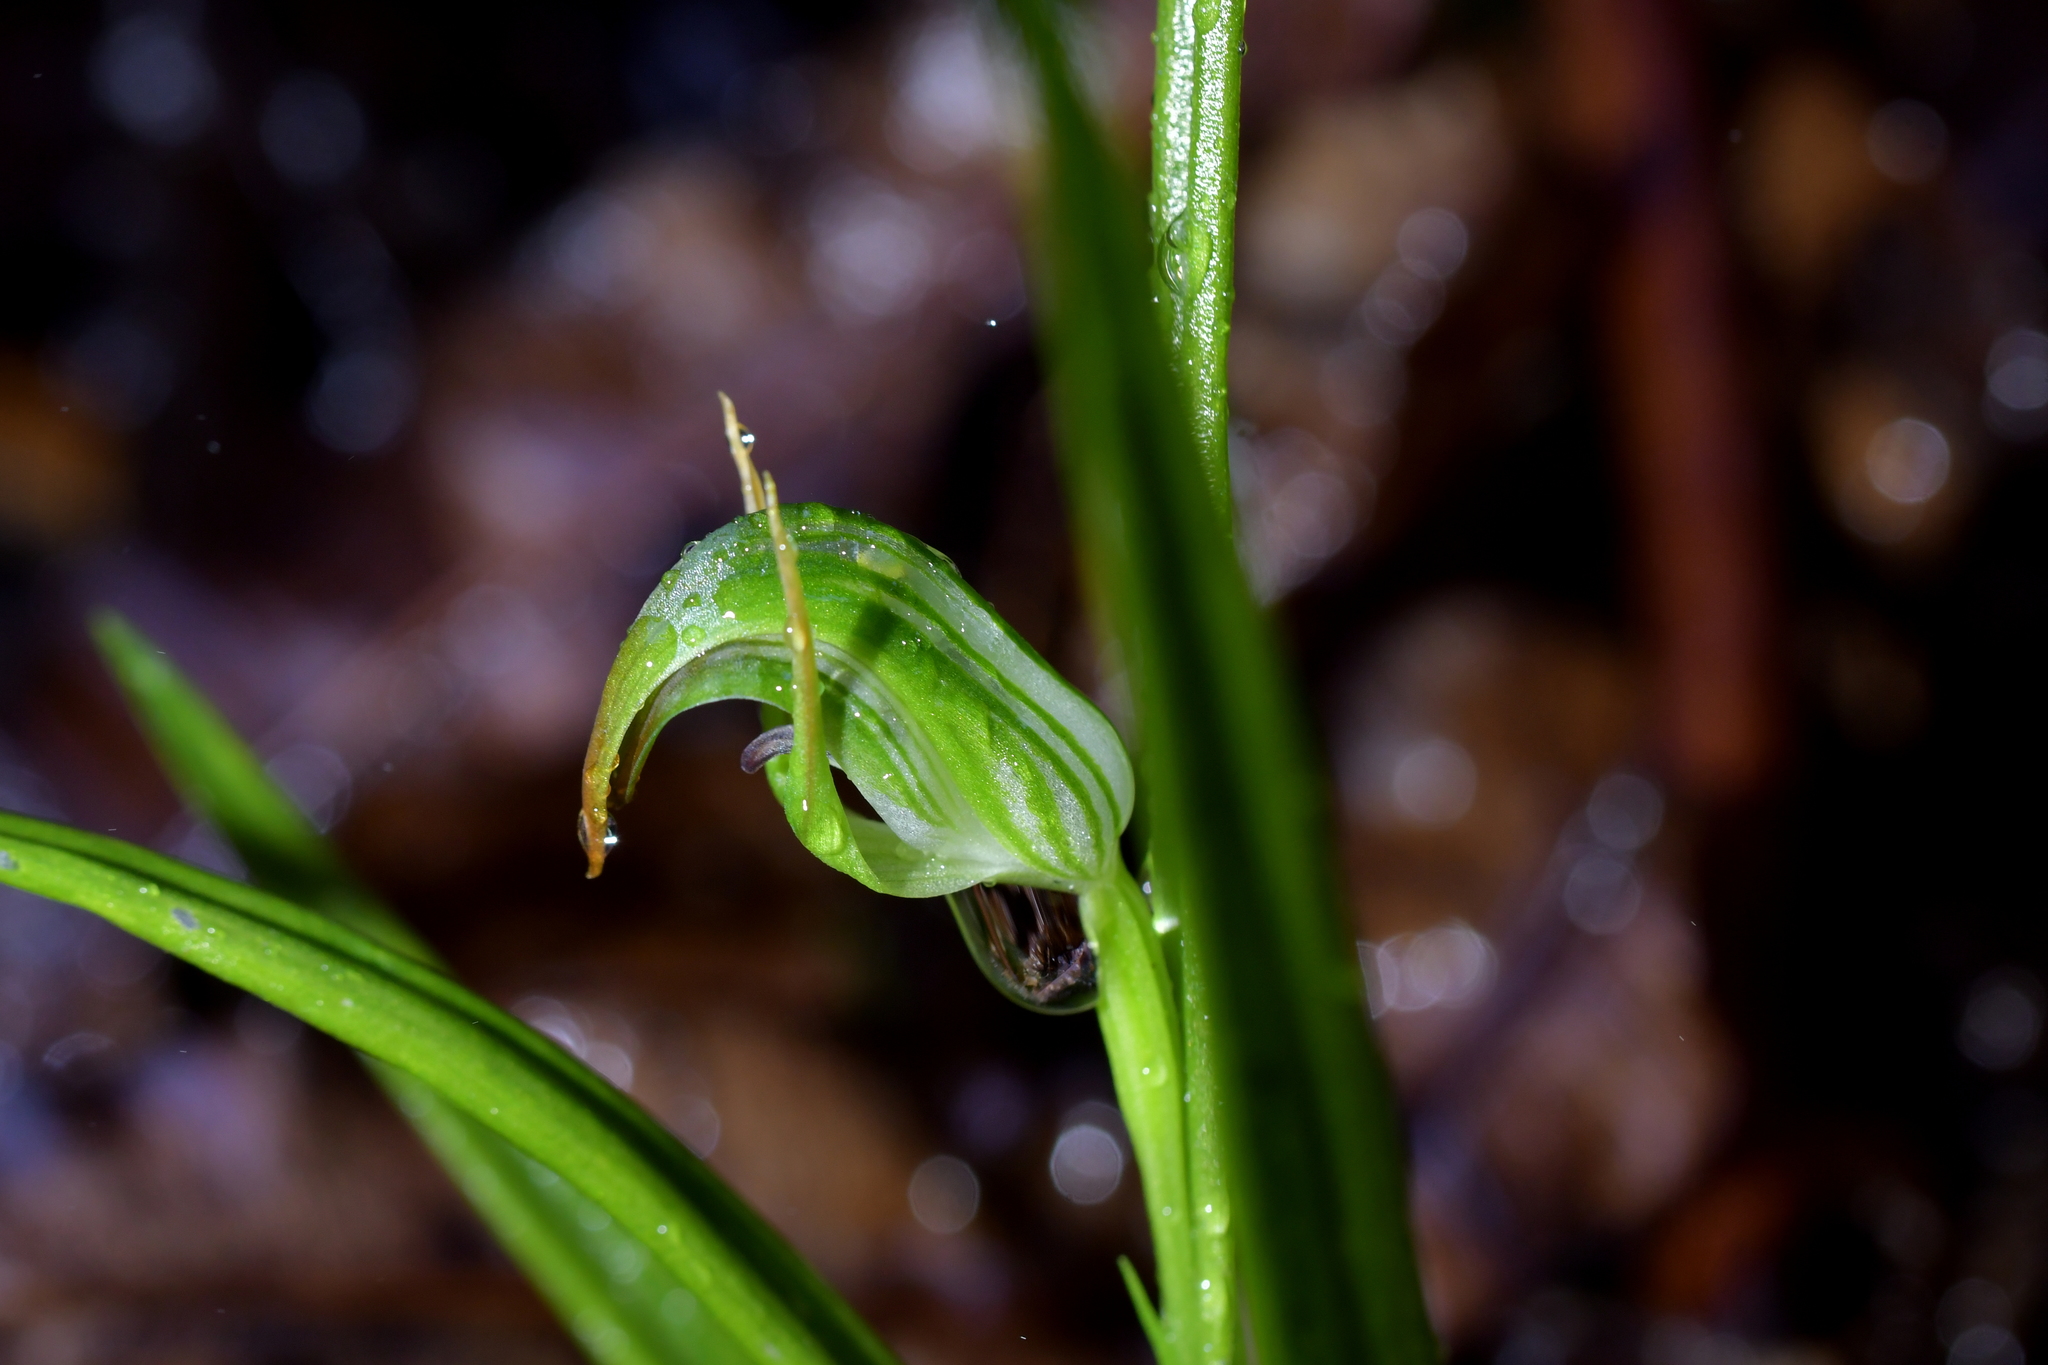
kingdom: Plantae
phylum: Tracheophyta
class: Liliopsida
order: Asparagales
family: Orchidaceae
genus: Pterostylis
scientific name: Pterostylis graminea
